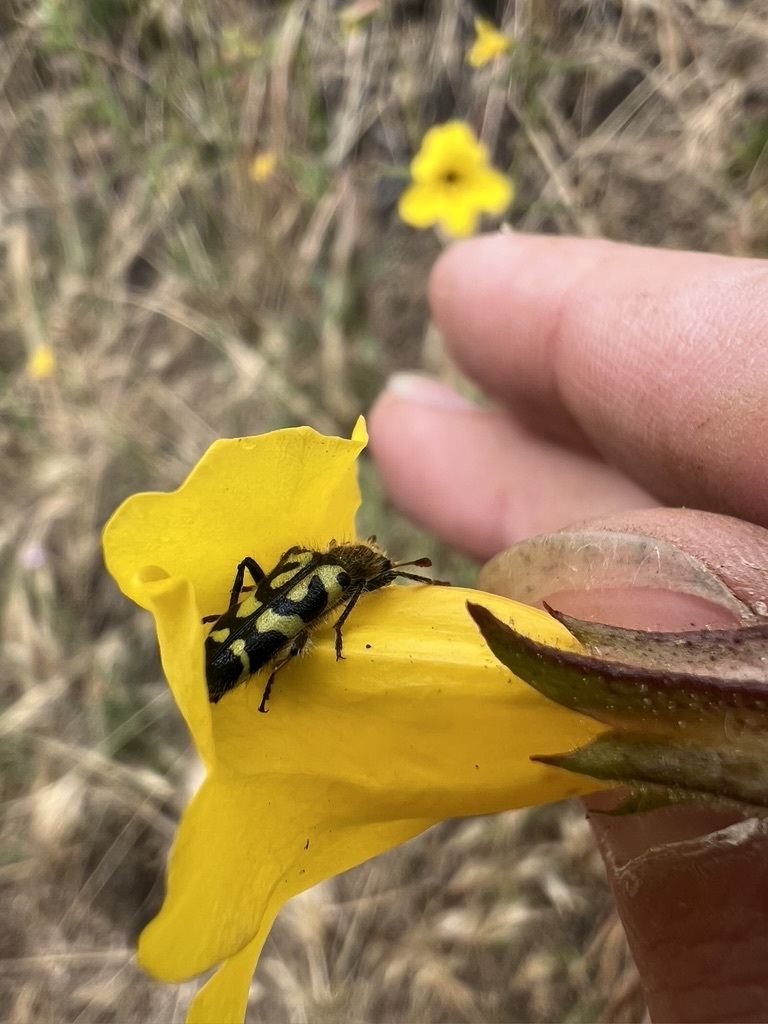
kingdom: Animalia
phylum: Arthropoda
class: Insecta
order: Coleoptera
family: Cleridae
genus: Trichodes
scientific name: Trichodes ornatus
